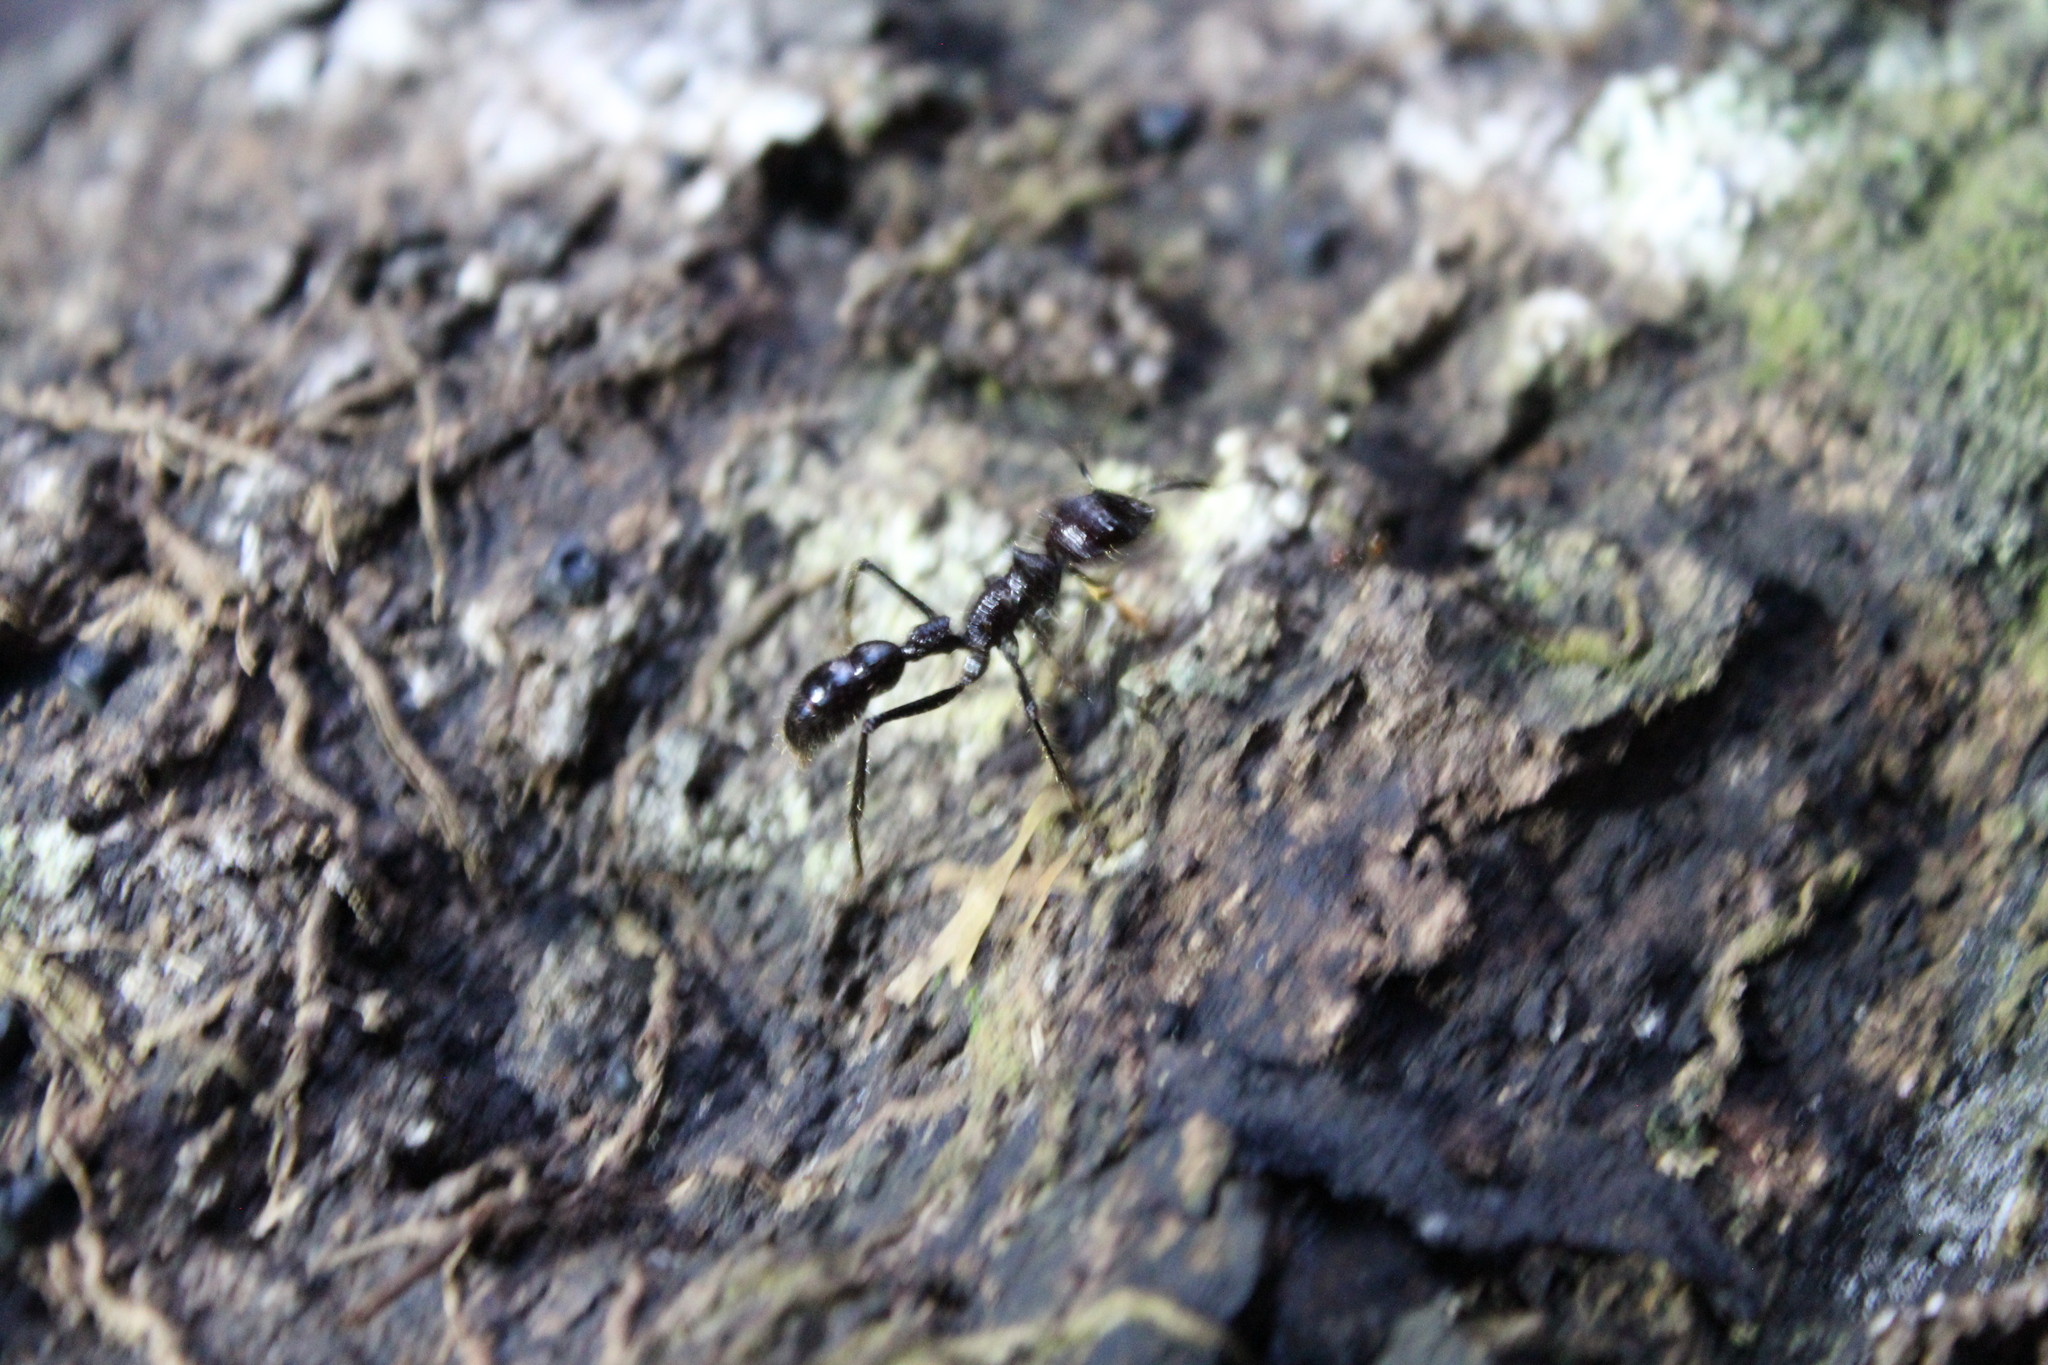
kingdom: Animalia
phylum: Arthropoda
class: Insecta
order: Hymenoptera
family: Formicidae
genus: Paraponera
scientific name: Paraponera clavata
